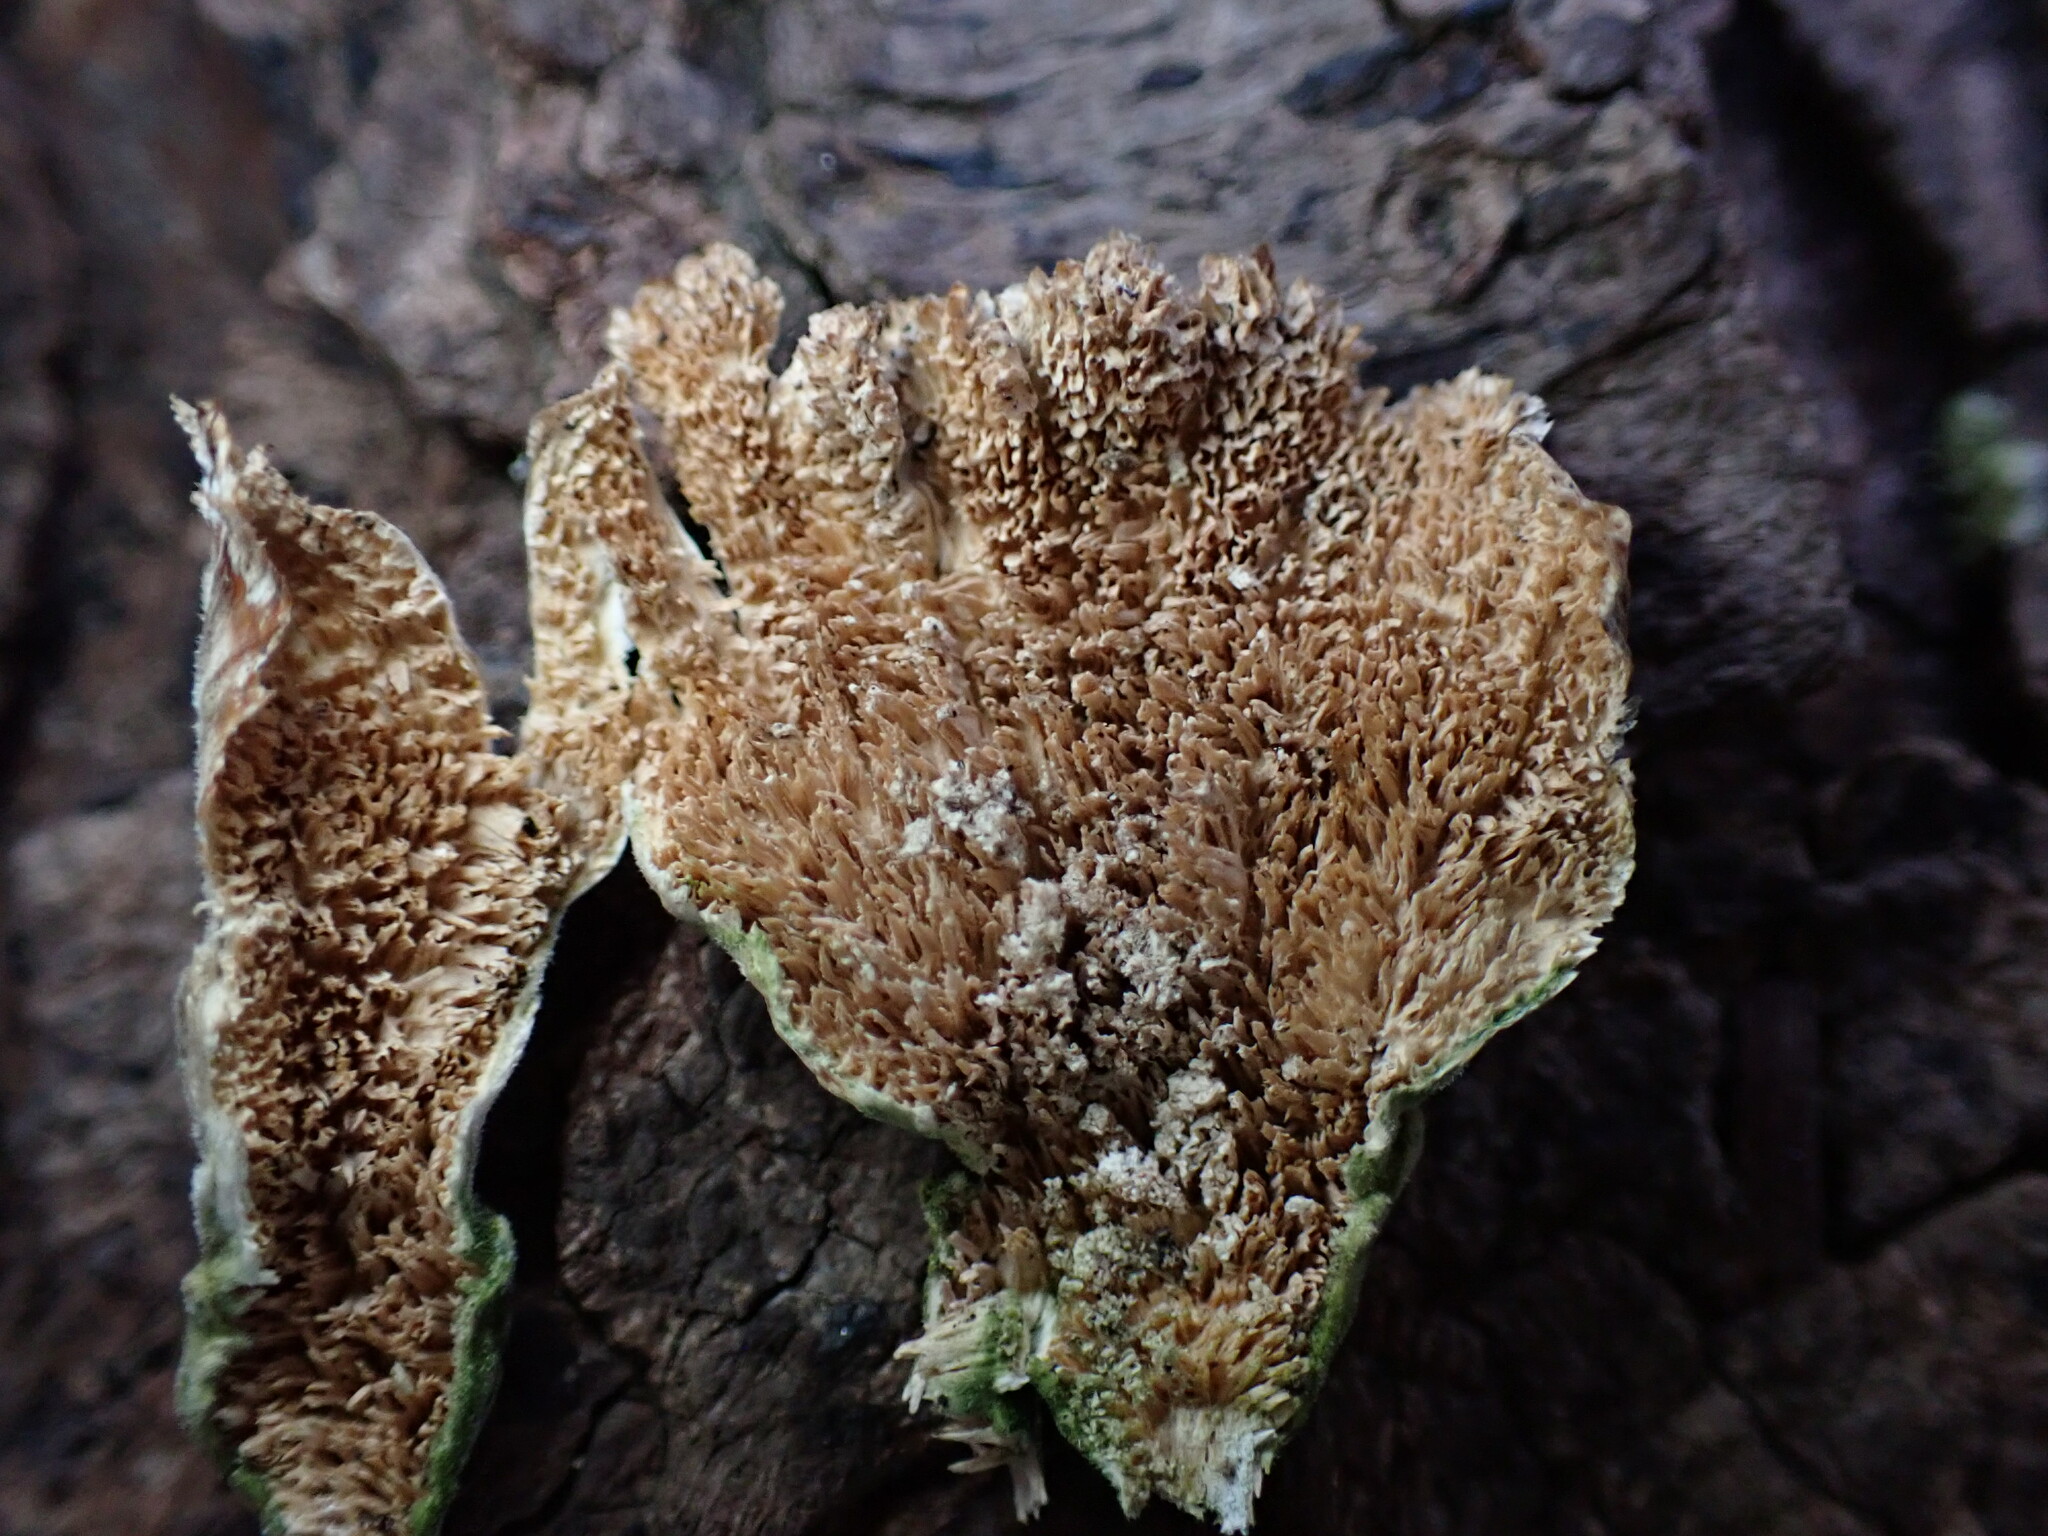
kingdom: Fungi
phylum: Basidiomycota
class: Agaricomycetes
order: Hymenochaetales
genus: Trichaptum
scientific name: Trichaptum biforme
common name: Violet-toothed polypore
